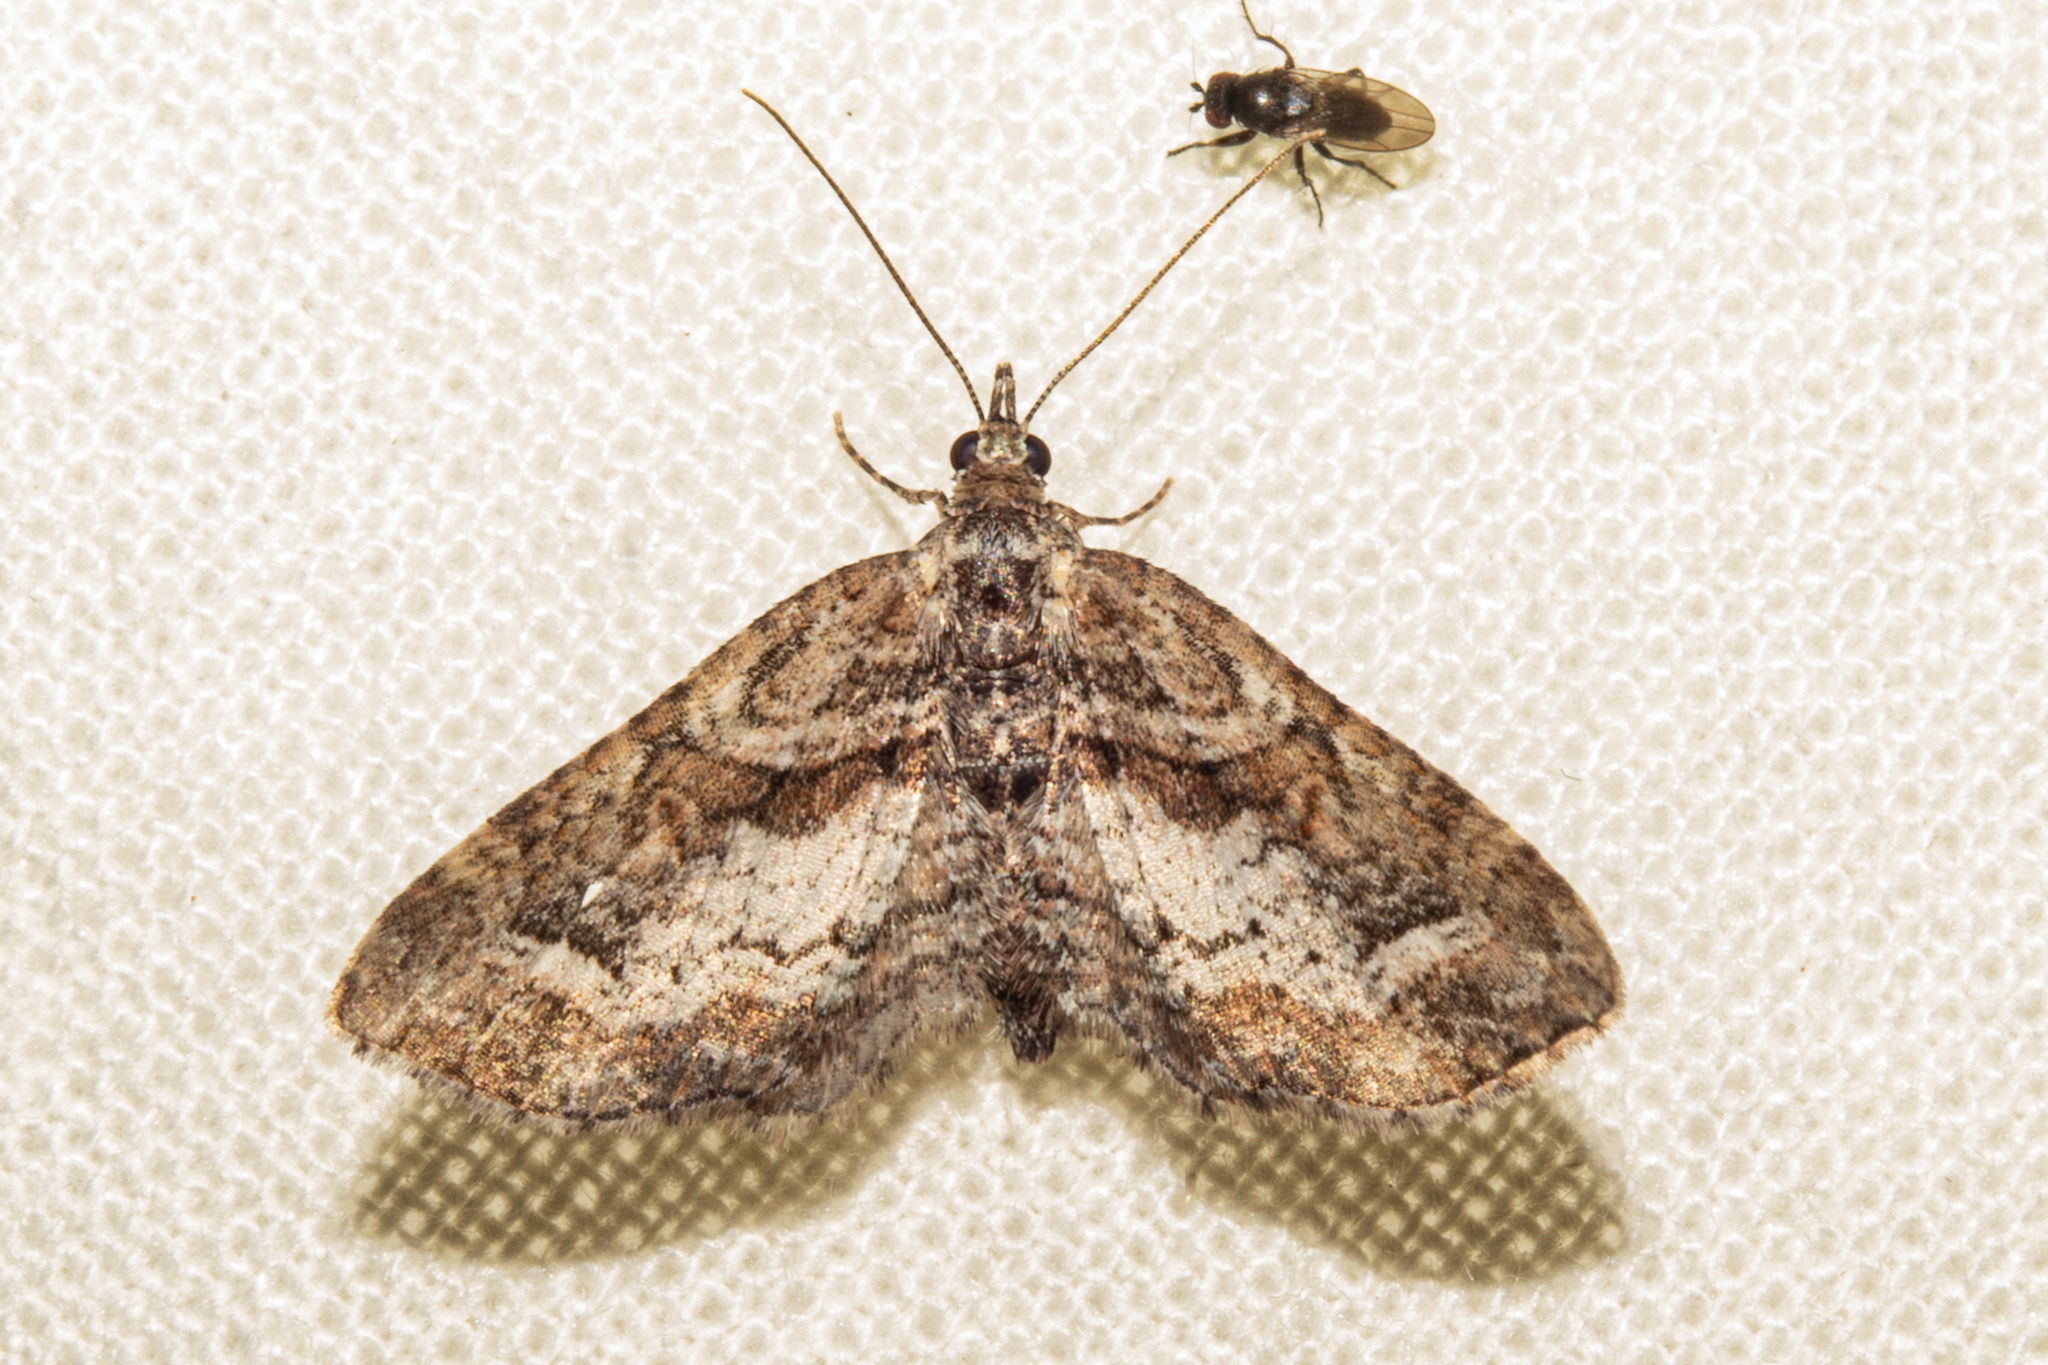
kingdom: Animalia
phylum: Arthropoda
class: Insecta
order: Lepidoptera
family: Geometridae
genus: Idaea
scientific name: Idaea mutanda
